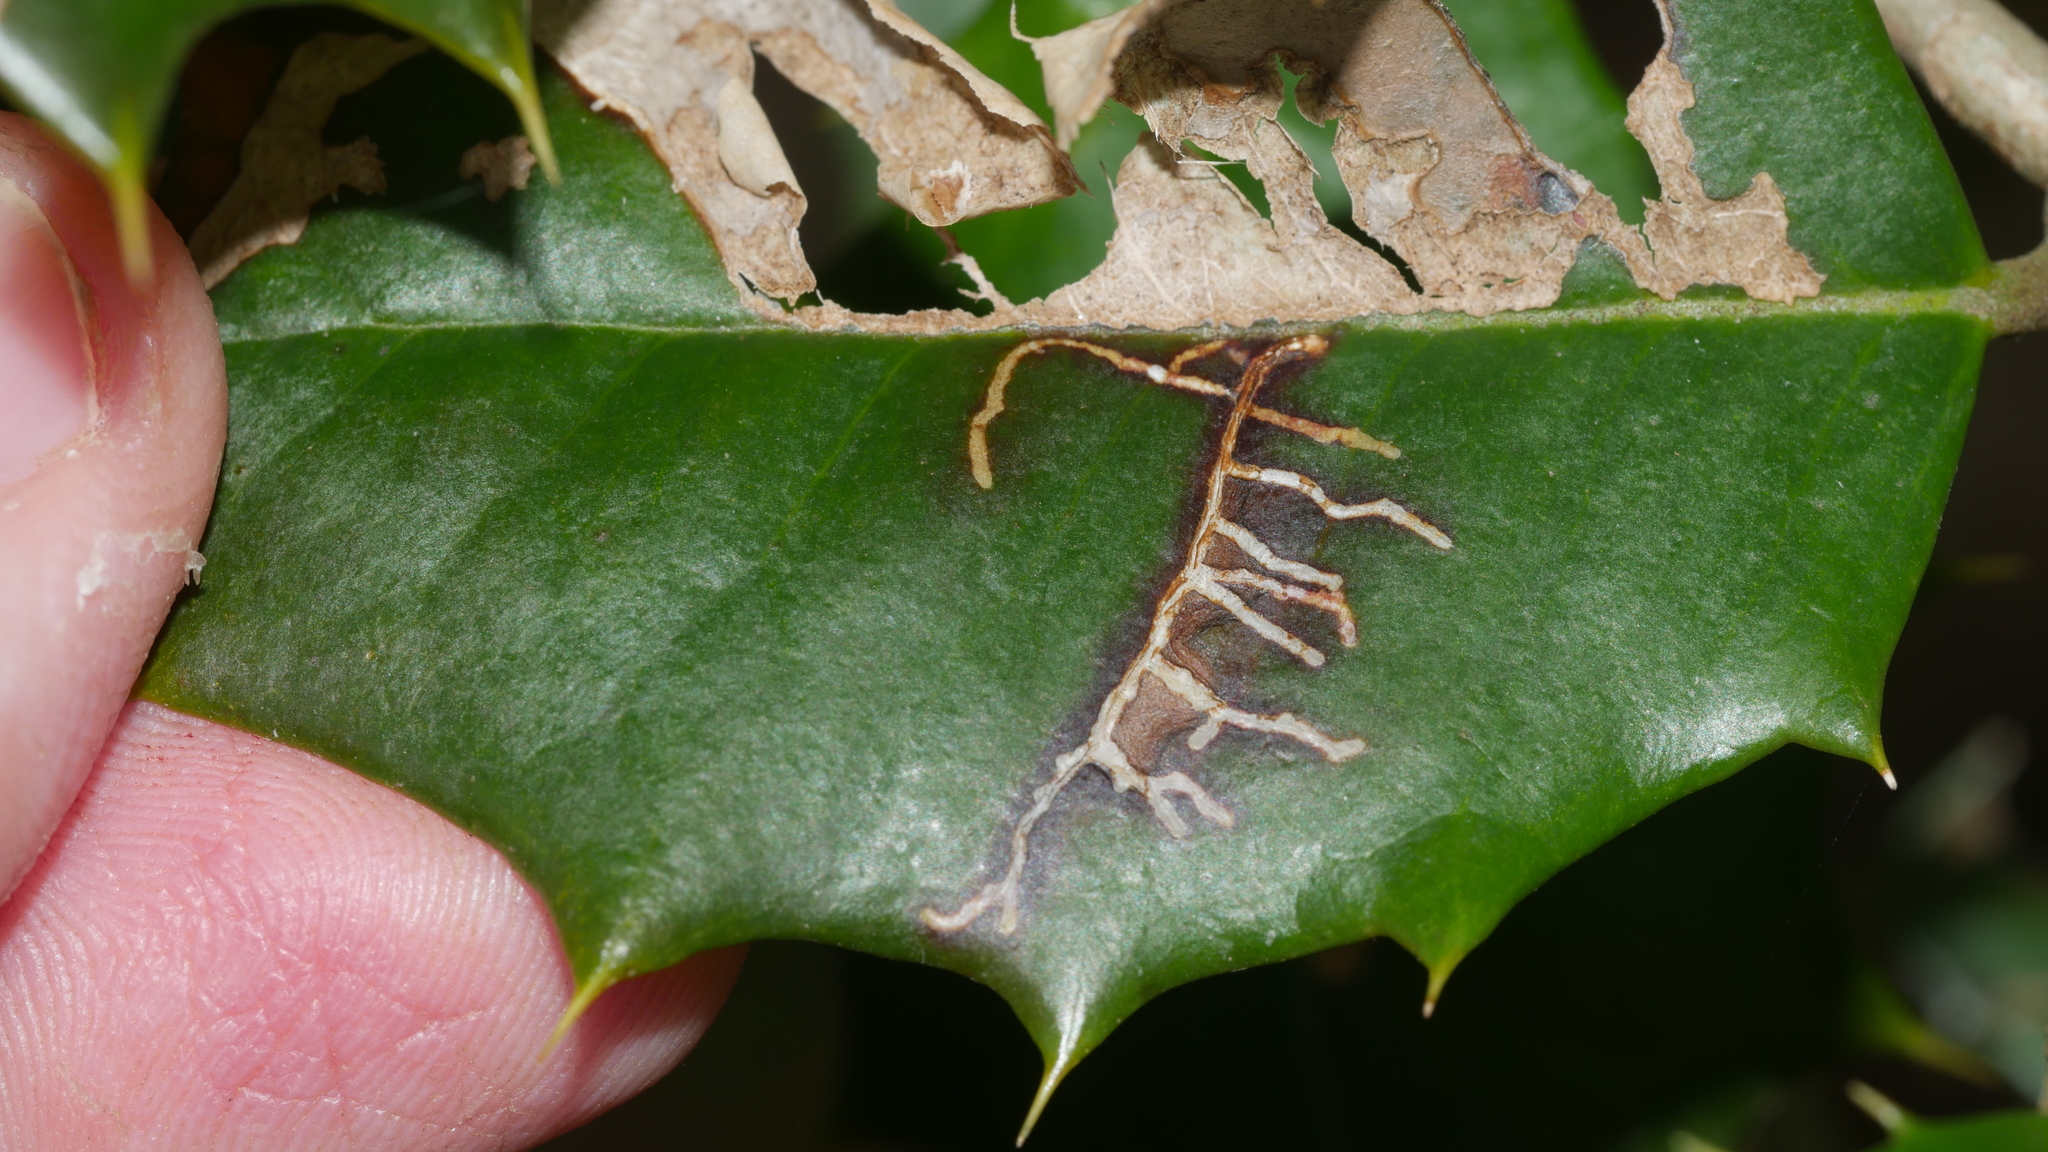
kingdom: Animalia
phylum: Arthropoda
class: Insecta
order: Lepidoptera
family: Tortricidae
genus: Rhopobota
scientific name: Rhopobota
